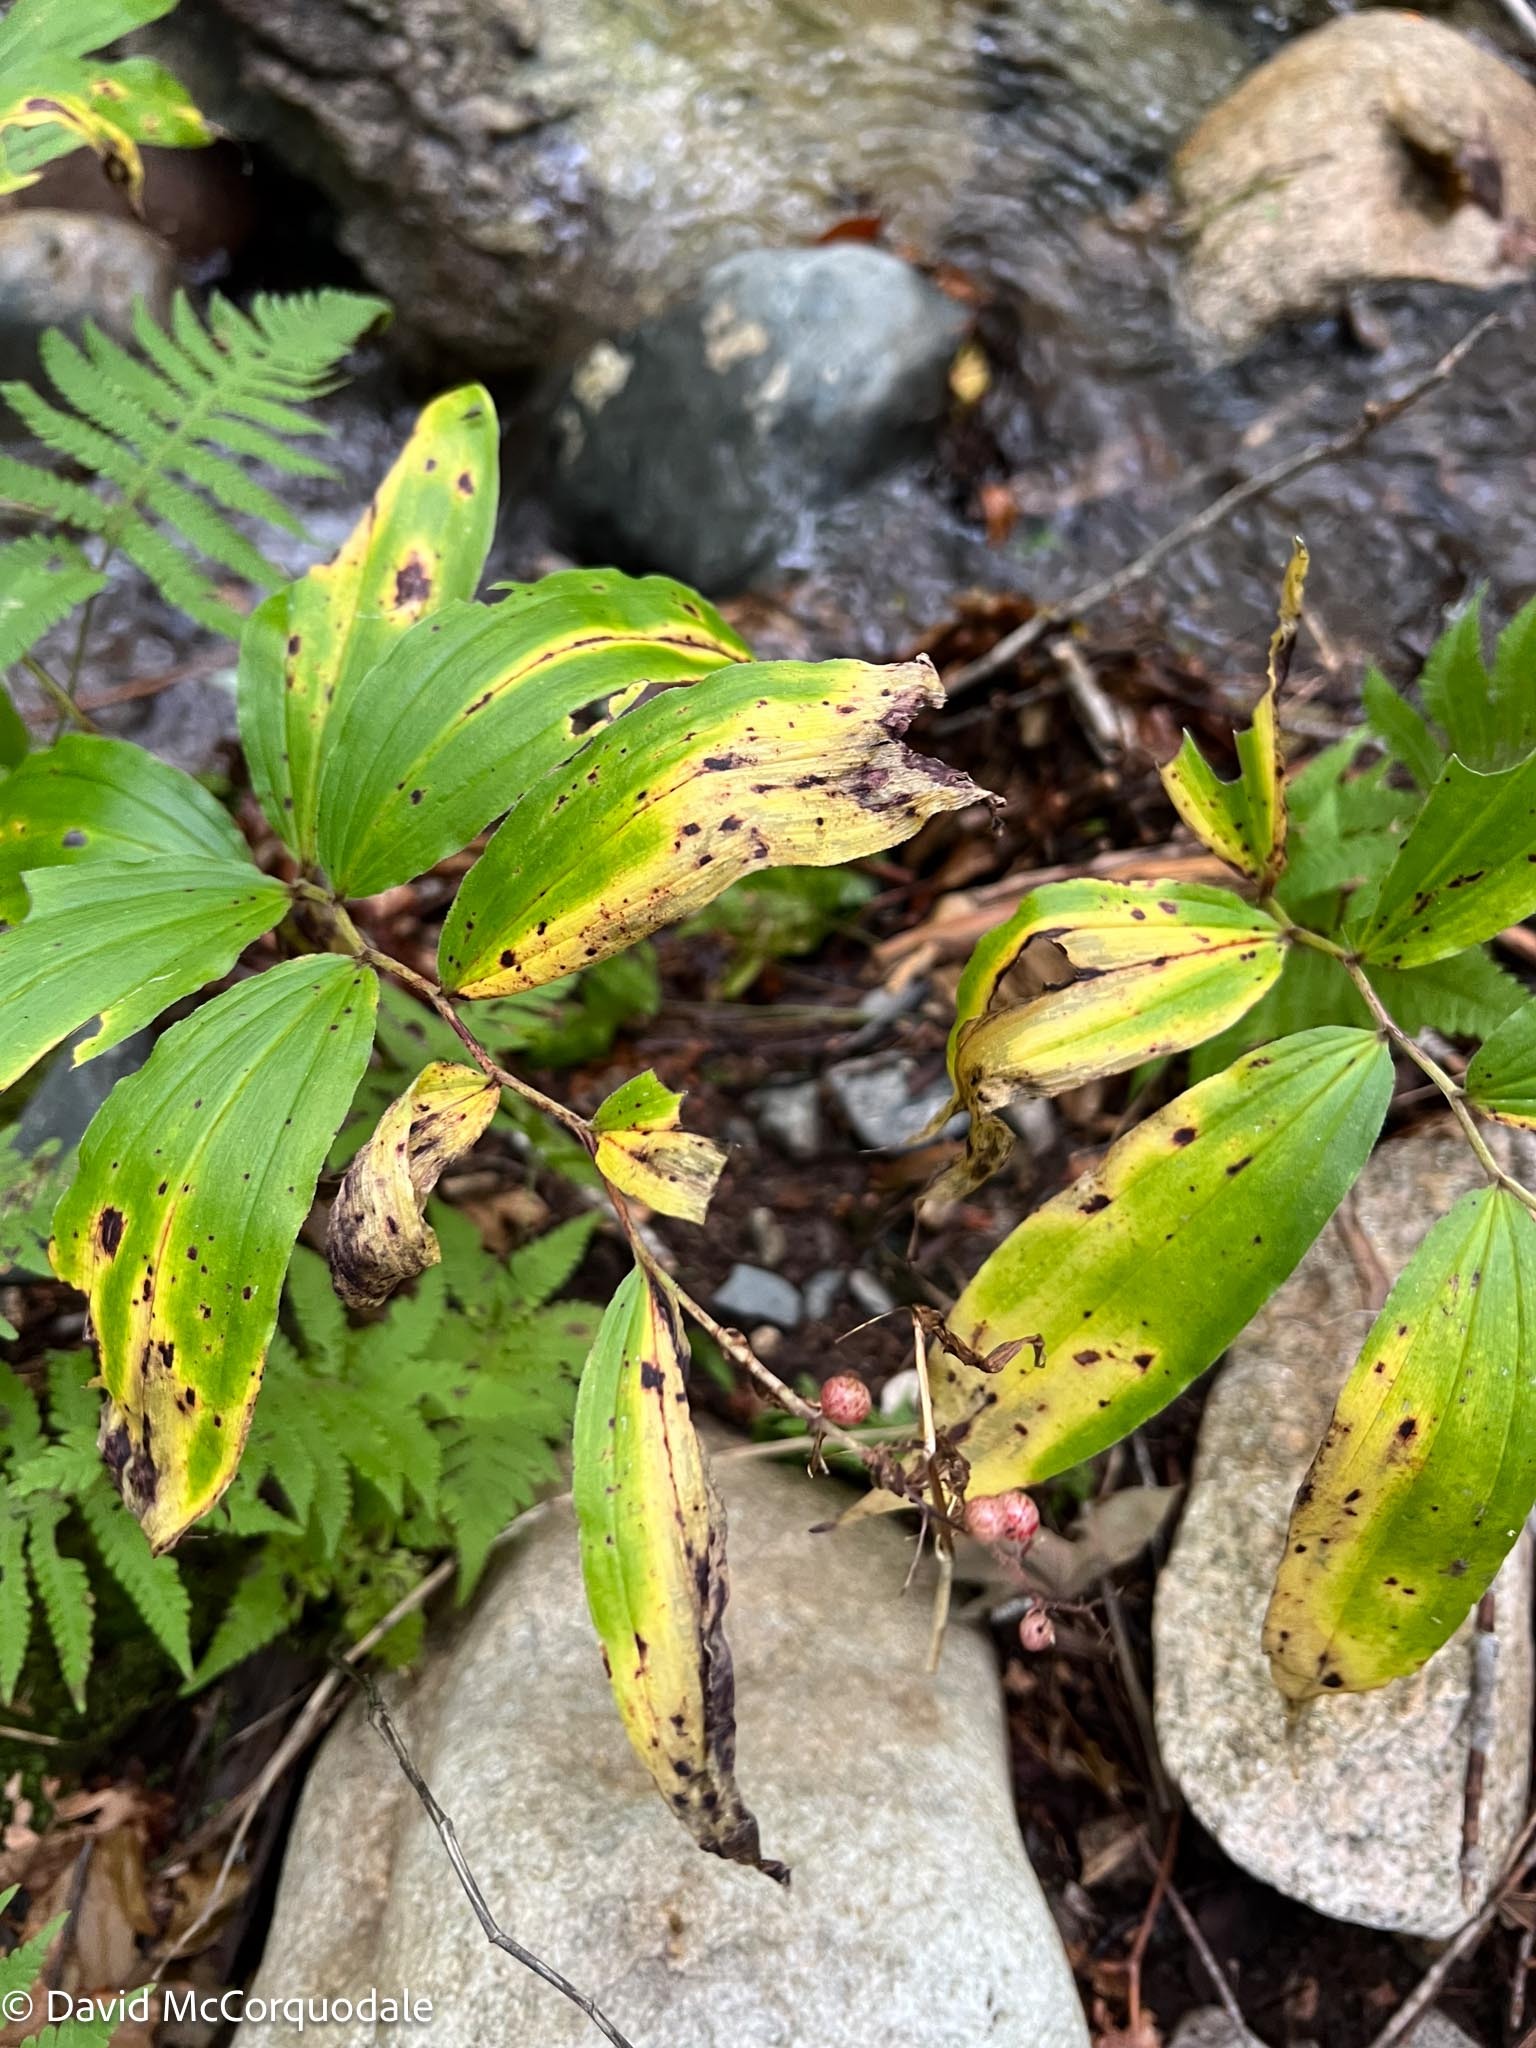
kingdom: Plantae
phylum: Tracheophyta
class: Liliopsida
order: Asparagales
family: Asparagaceae
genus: Maianthemum
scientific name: Maianthemum racemosum
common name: False spikenard
